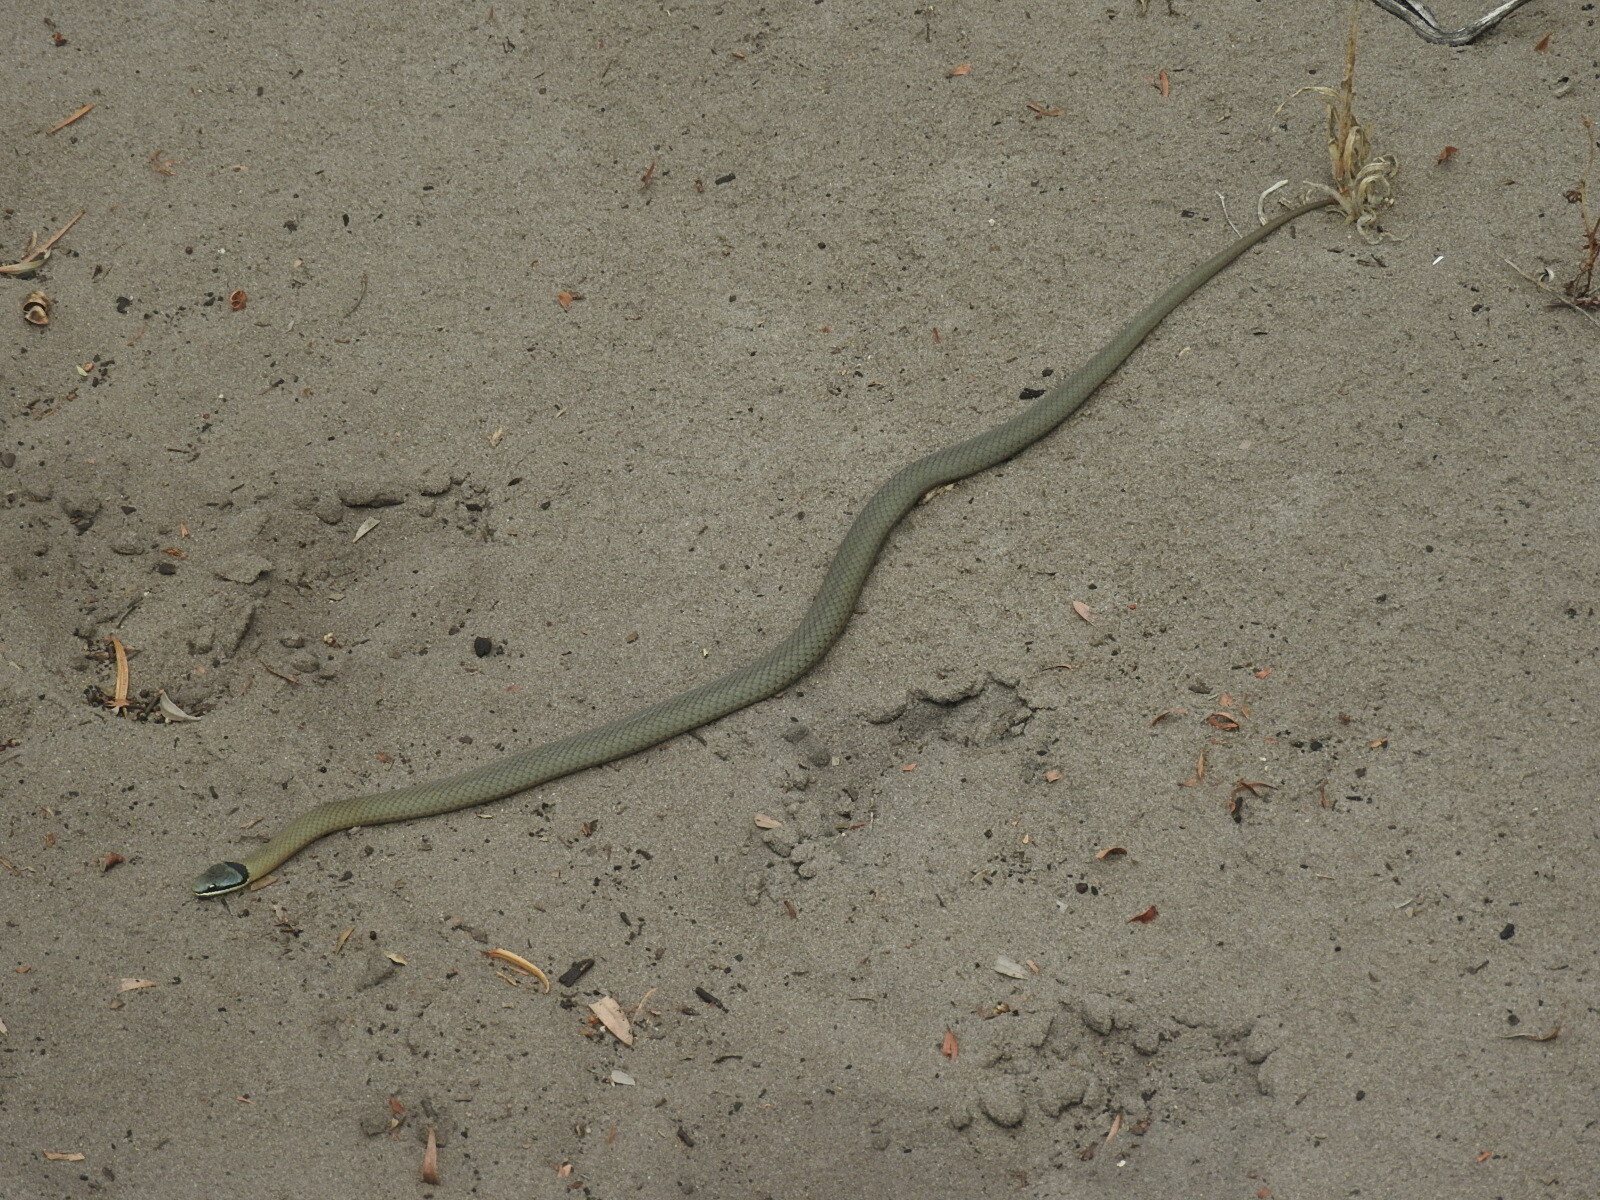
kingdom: Animalia
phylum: Chordata
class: Squamata
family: Elapidae
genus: Elapognathus
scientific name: Elapognathus coronatus
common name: Crowned snake
